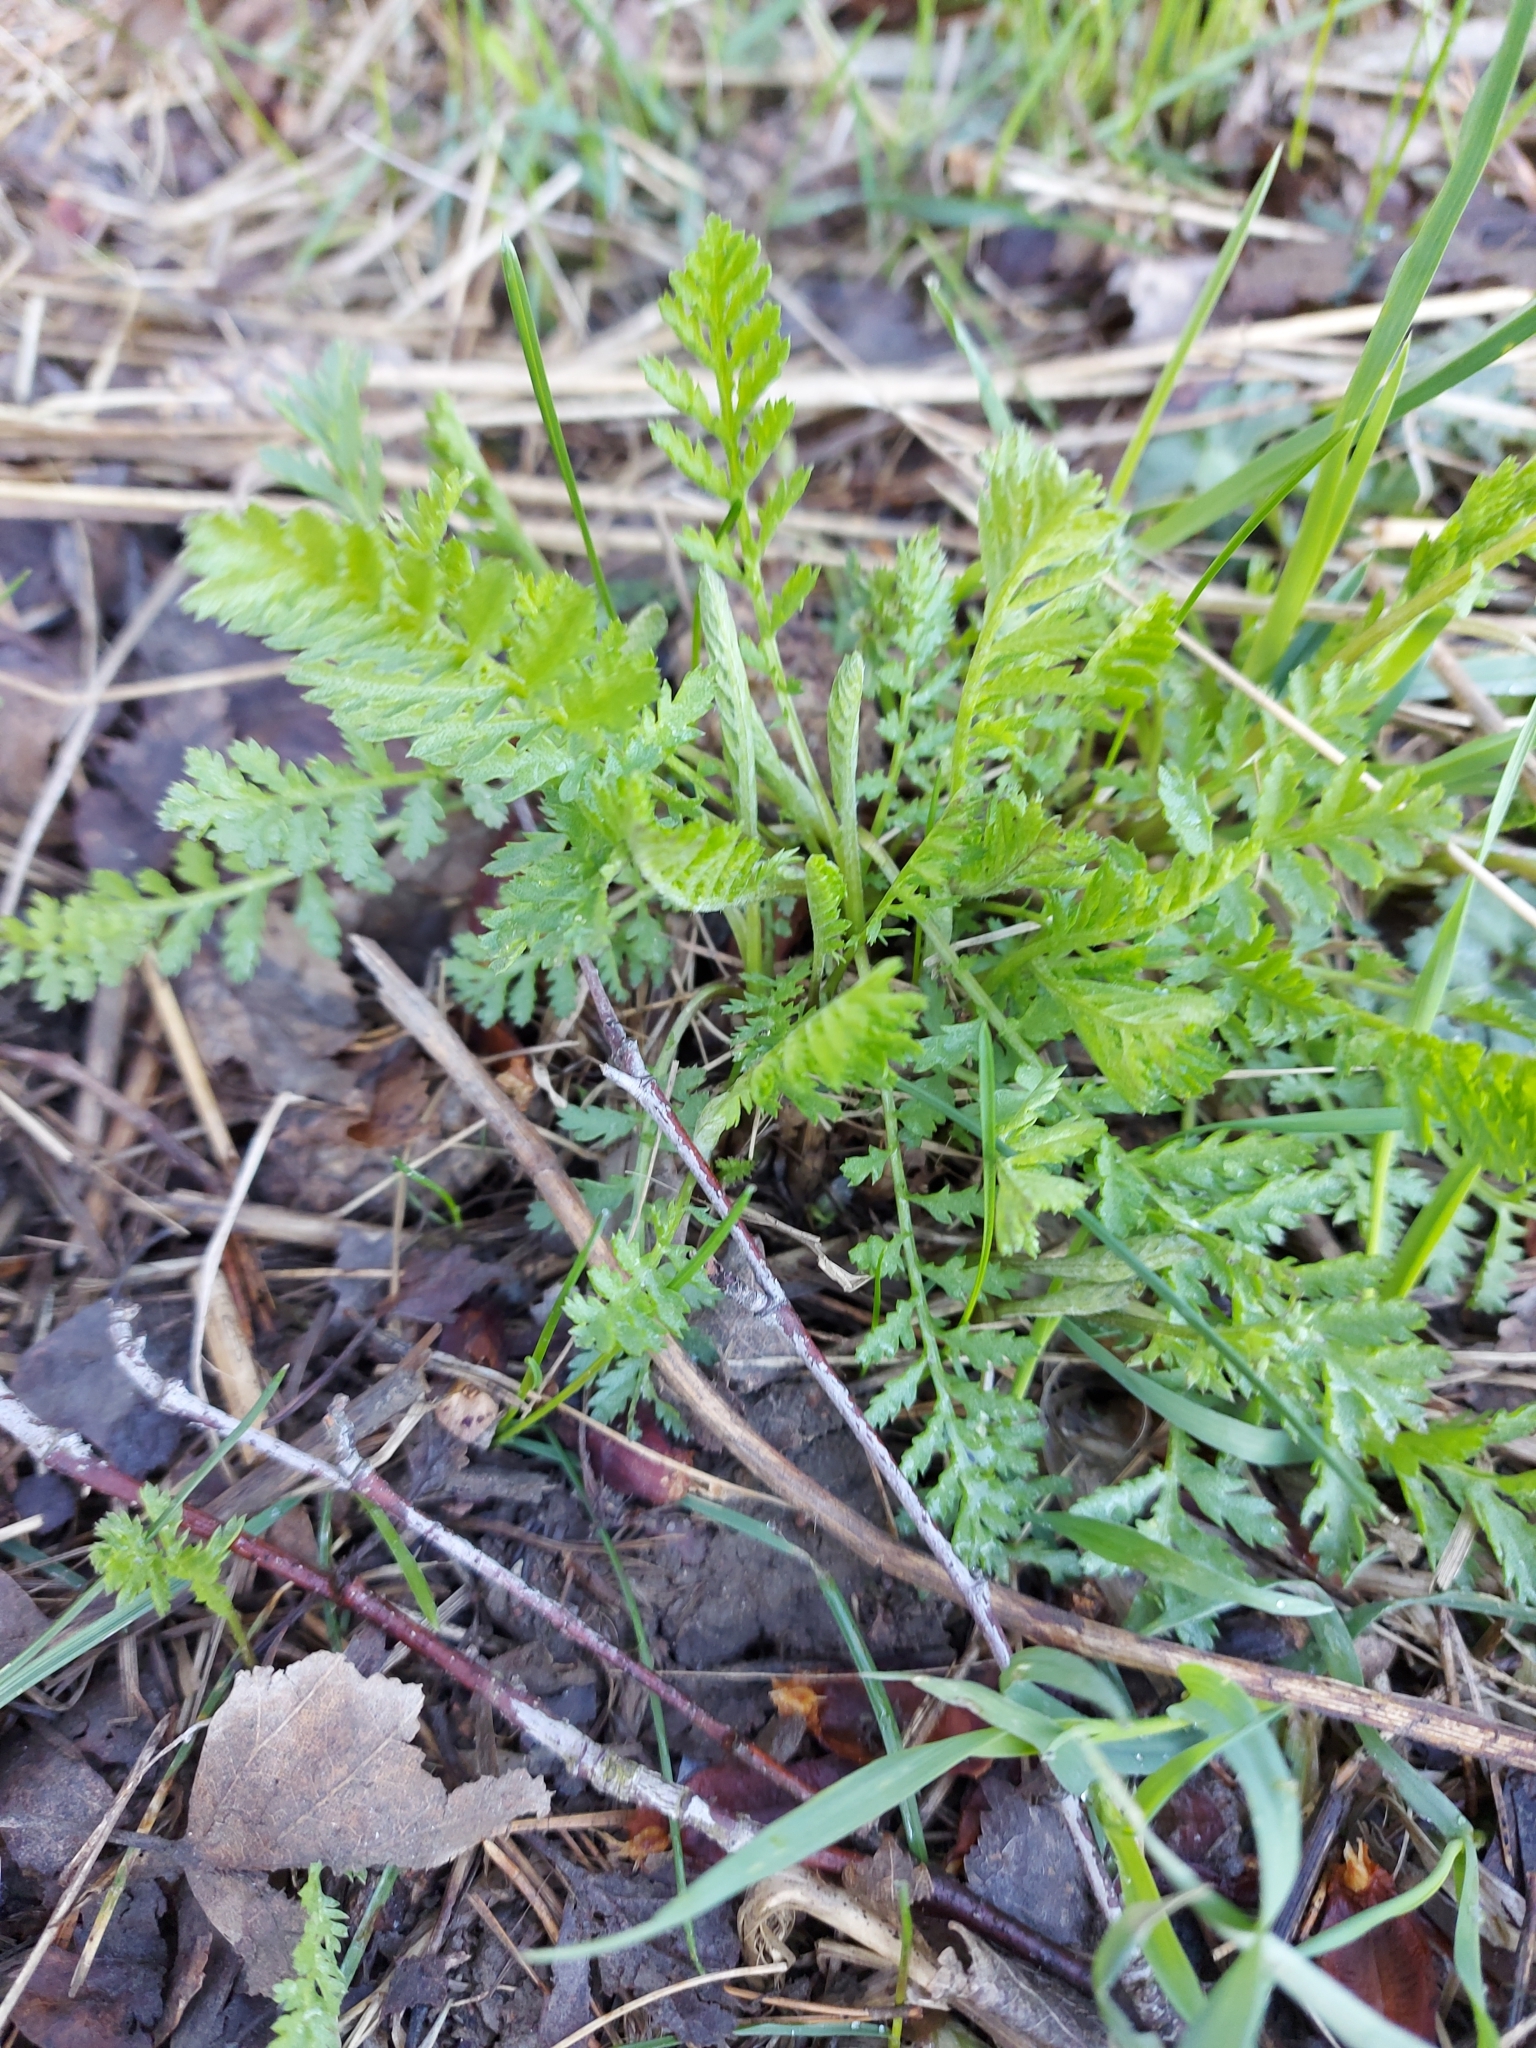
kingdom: Plantae
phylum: Tracheophyta
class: Magnoliopsida
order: Asterales
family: Asteraceae
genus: Tanacetum
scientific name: Tanacetum vulgare
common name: Common tansy
